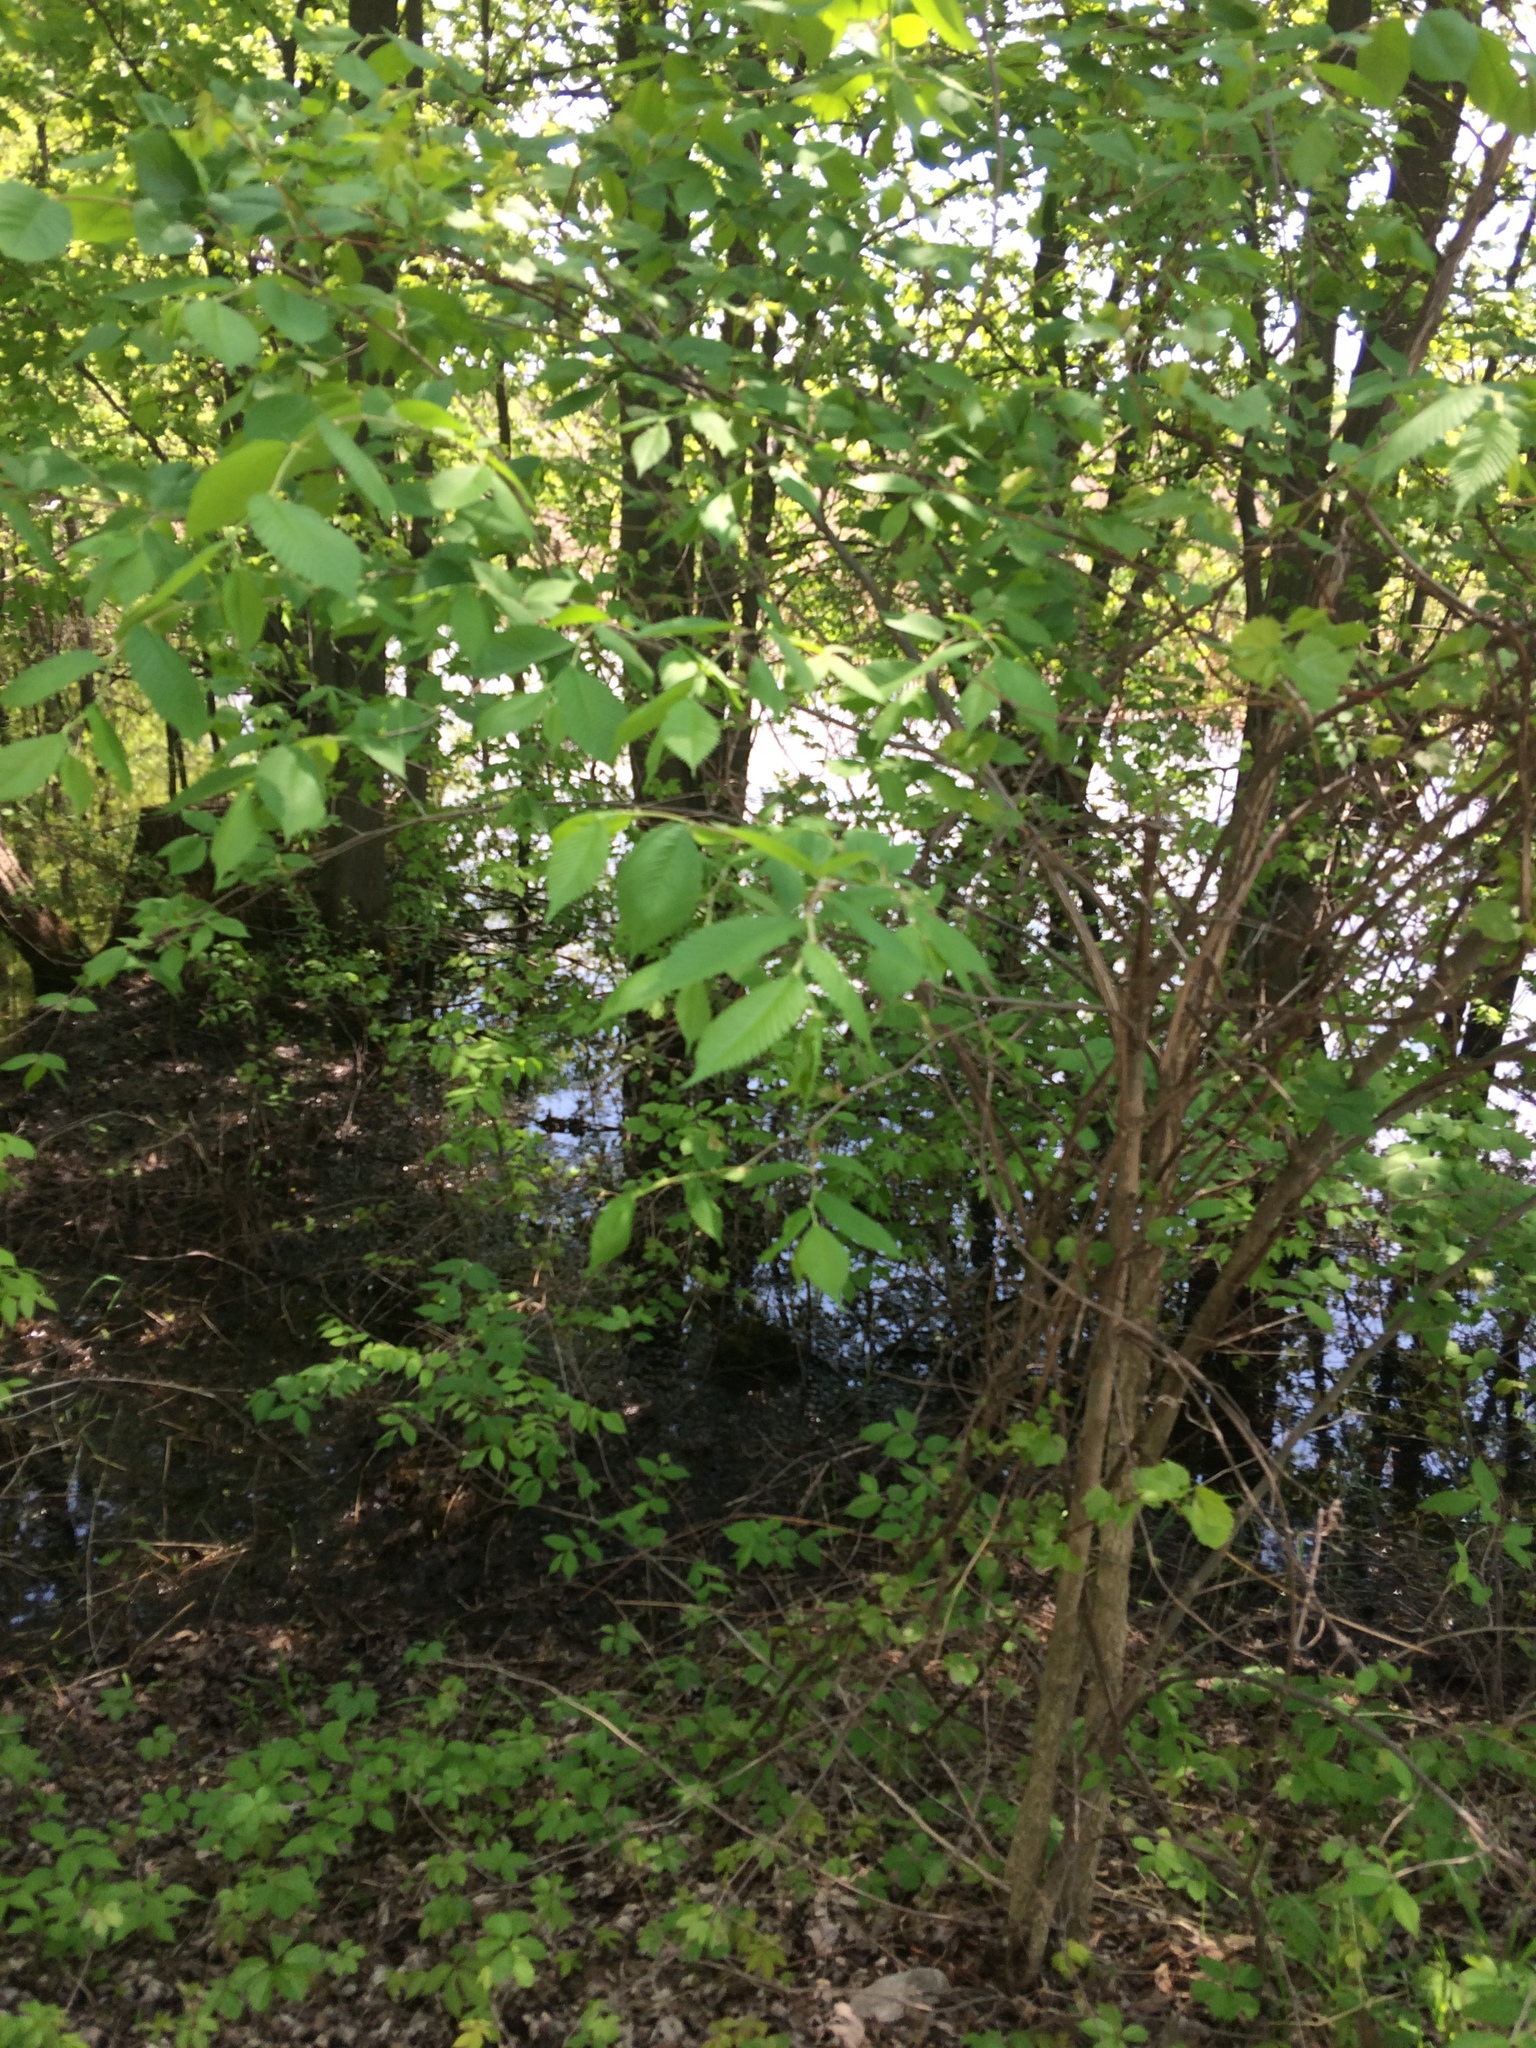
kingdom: Plantae
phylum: Tracheophyta
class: Magnoliopsida
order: Rosales
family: Ulmaceae
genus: Ulmus
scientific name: Ulmus americana
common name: American elm
